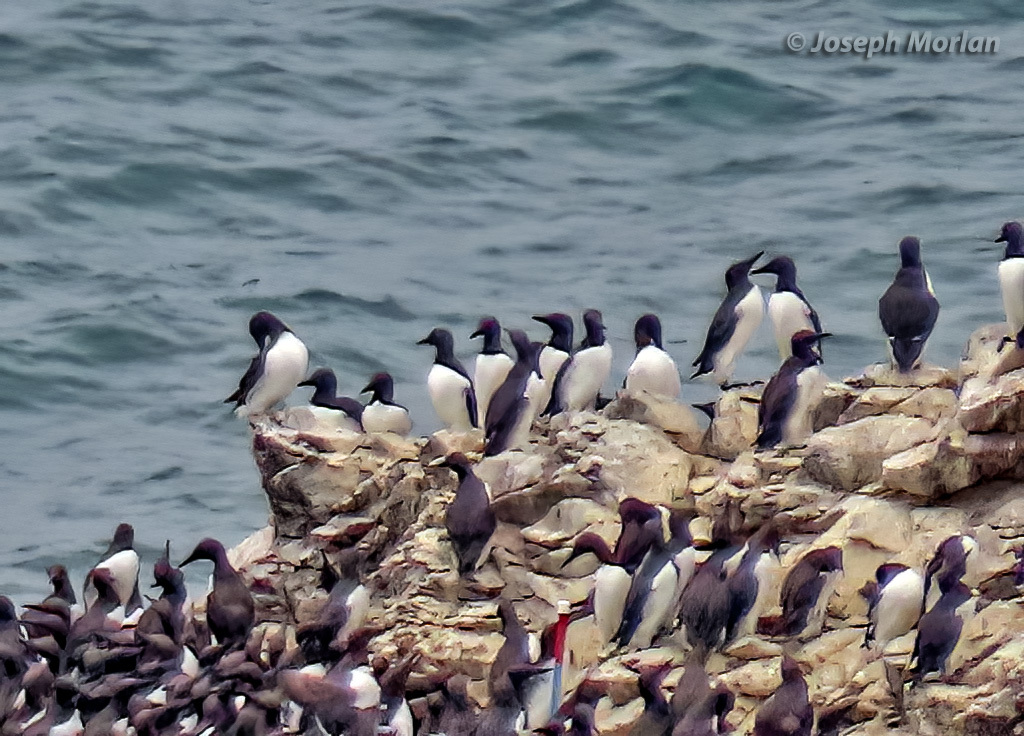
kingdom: Animalia
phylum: Chordata
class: Aves
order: Charadriiformes
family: Alcidae
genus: Uria
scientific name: Uria aalge
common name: Common murre
